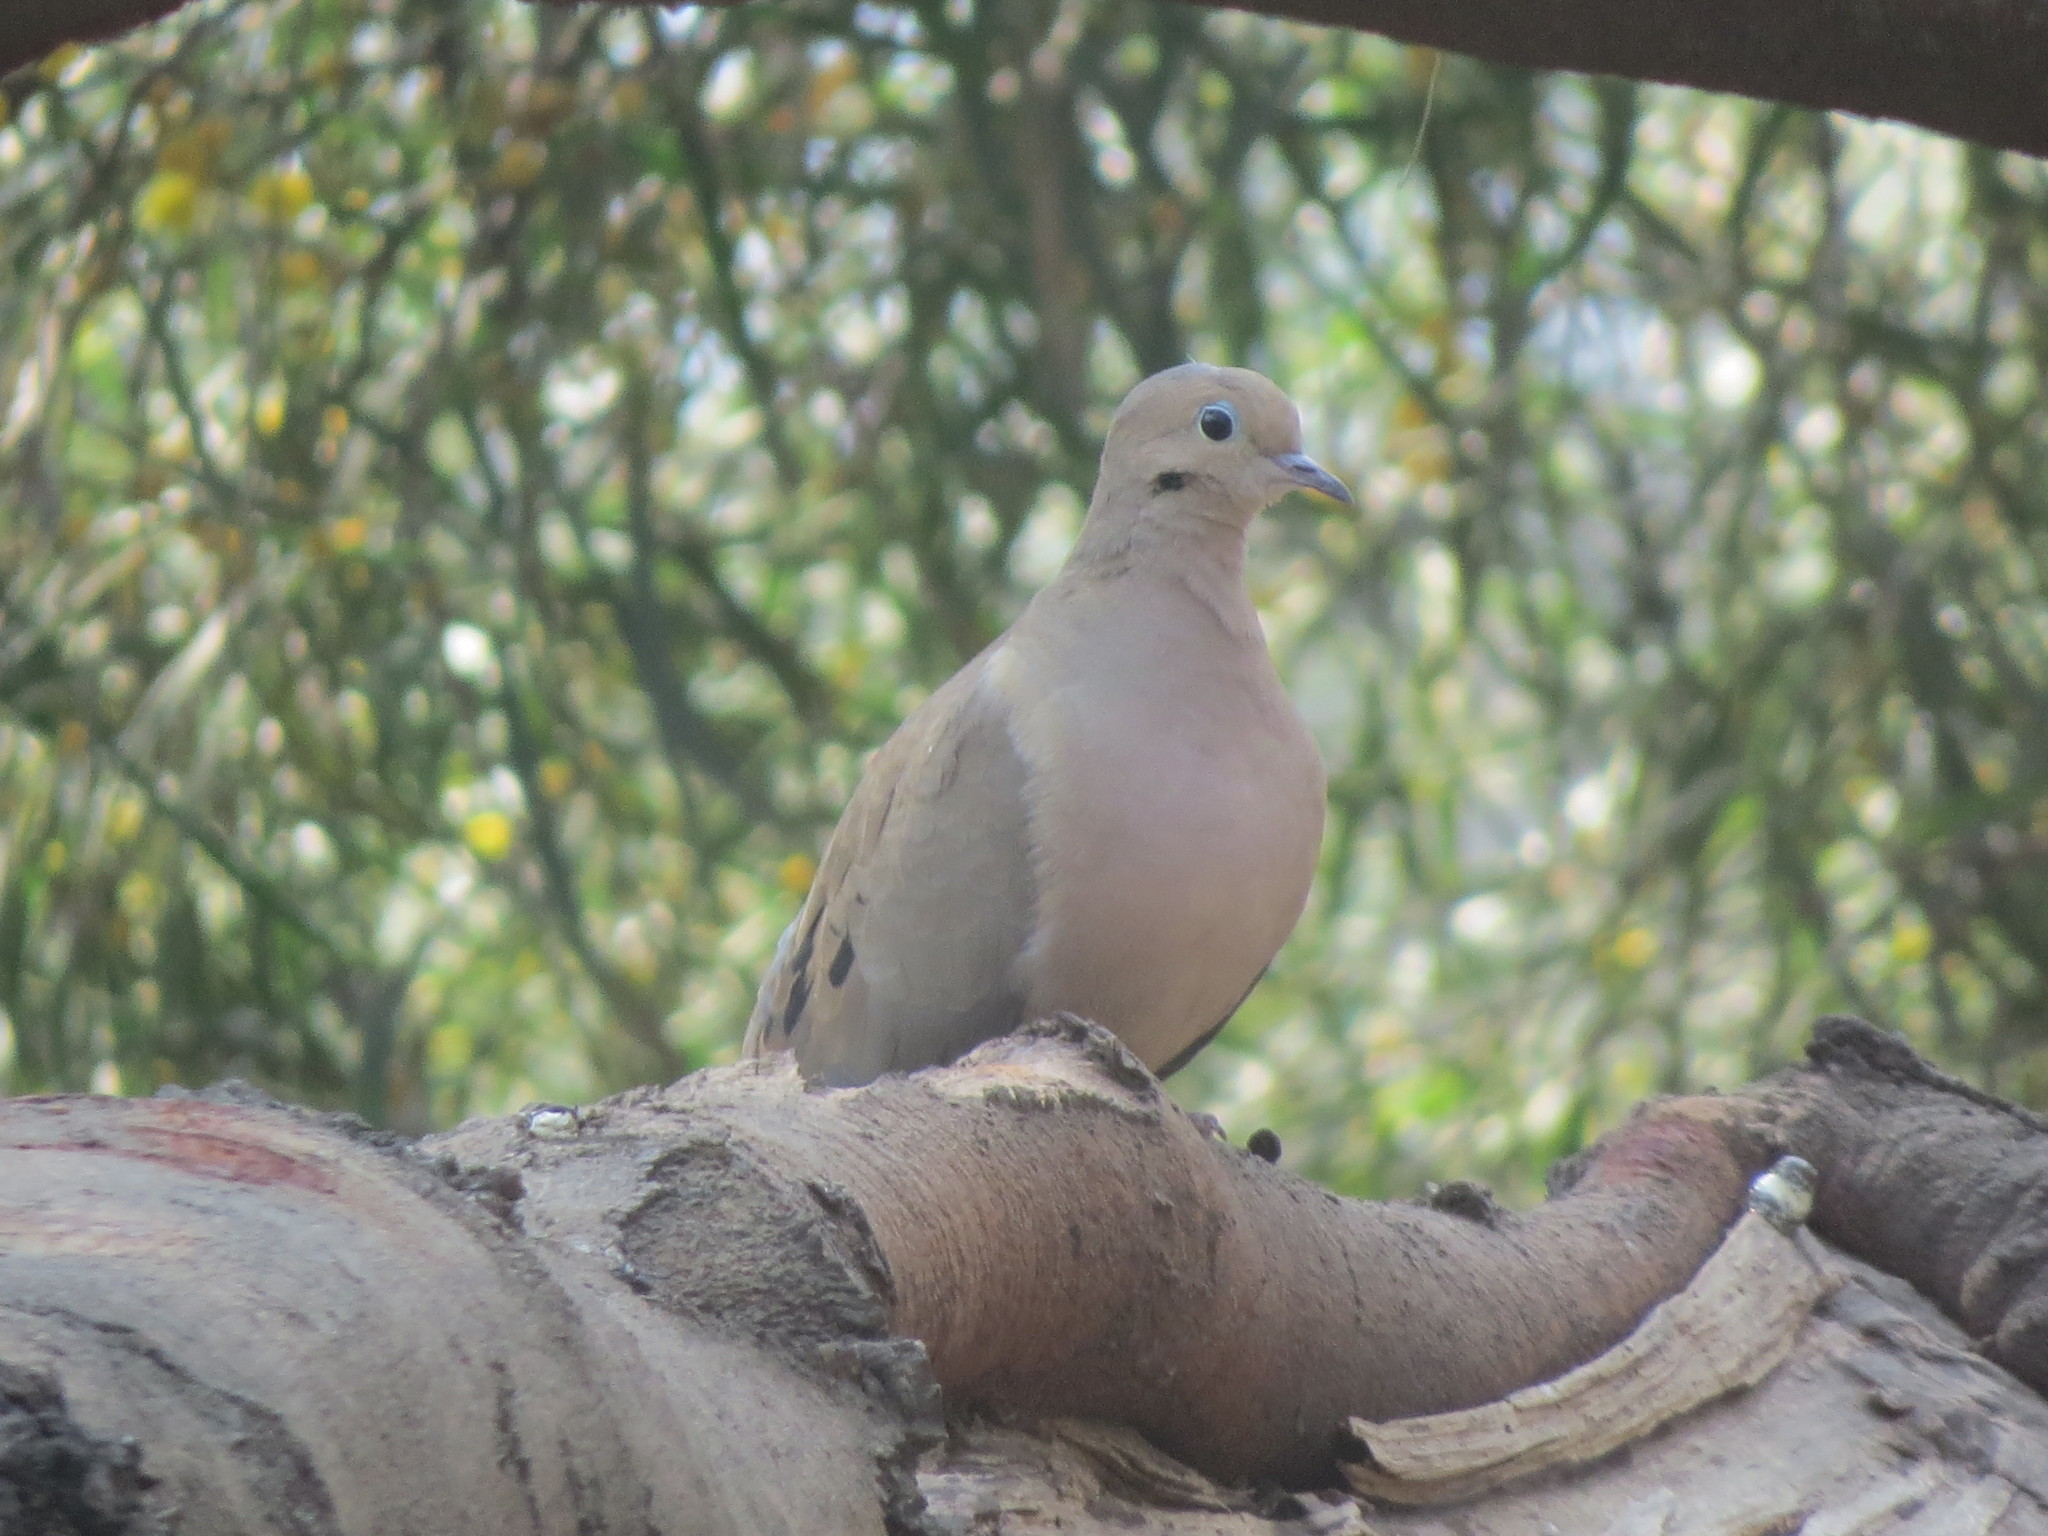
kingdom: Animalia
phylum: Chordata
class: Aves
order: Columbiformes
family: Columbidae
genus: Zenaida
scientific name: Zenaida macroura
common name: Mourning dove
